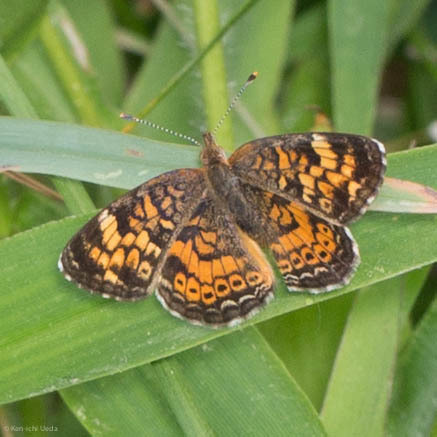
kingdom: Animalia
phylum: Arthropoda
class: Insecta
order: Lepidoptera
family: Nymphalidae
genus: Phyciodes
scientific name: Phyciodes tharos
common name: Pearl crescent
